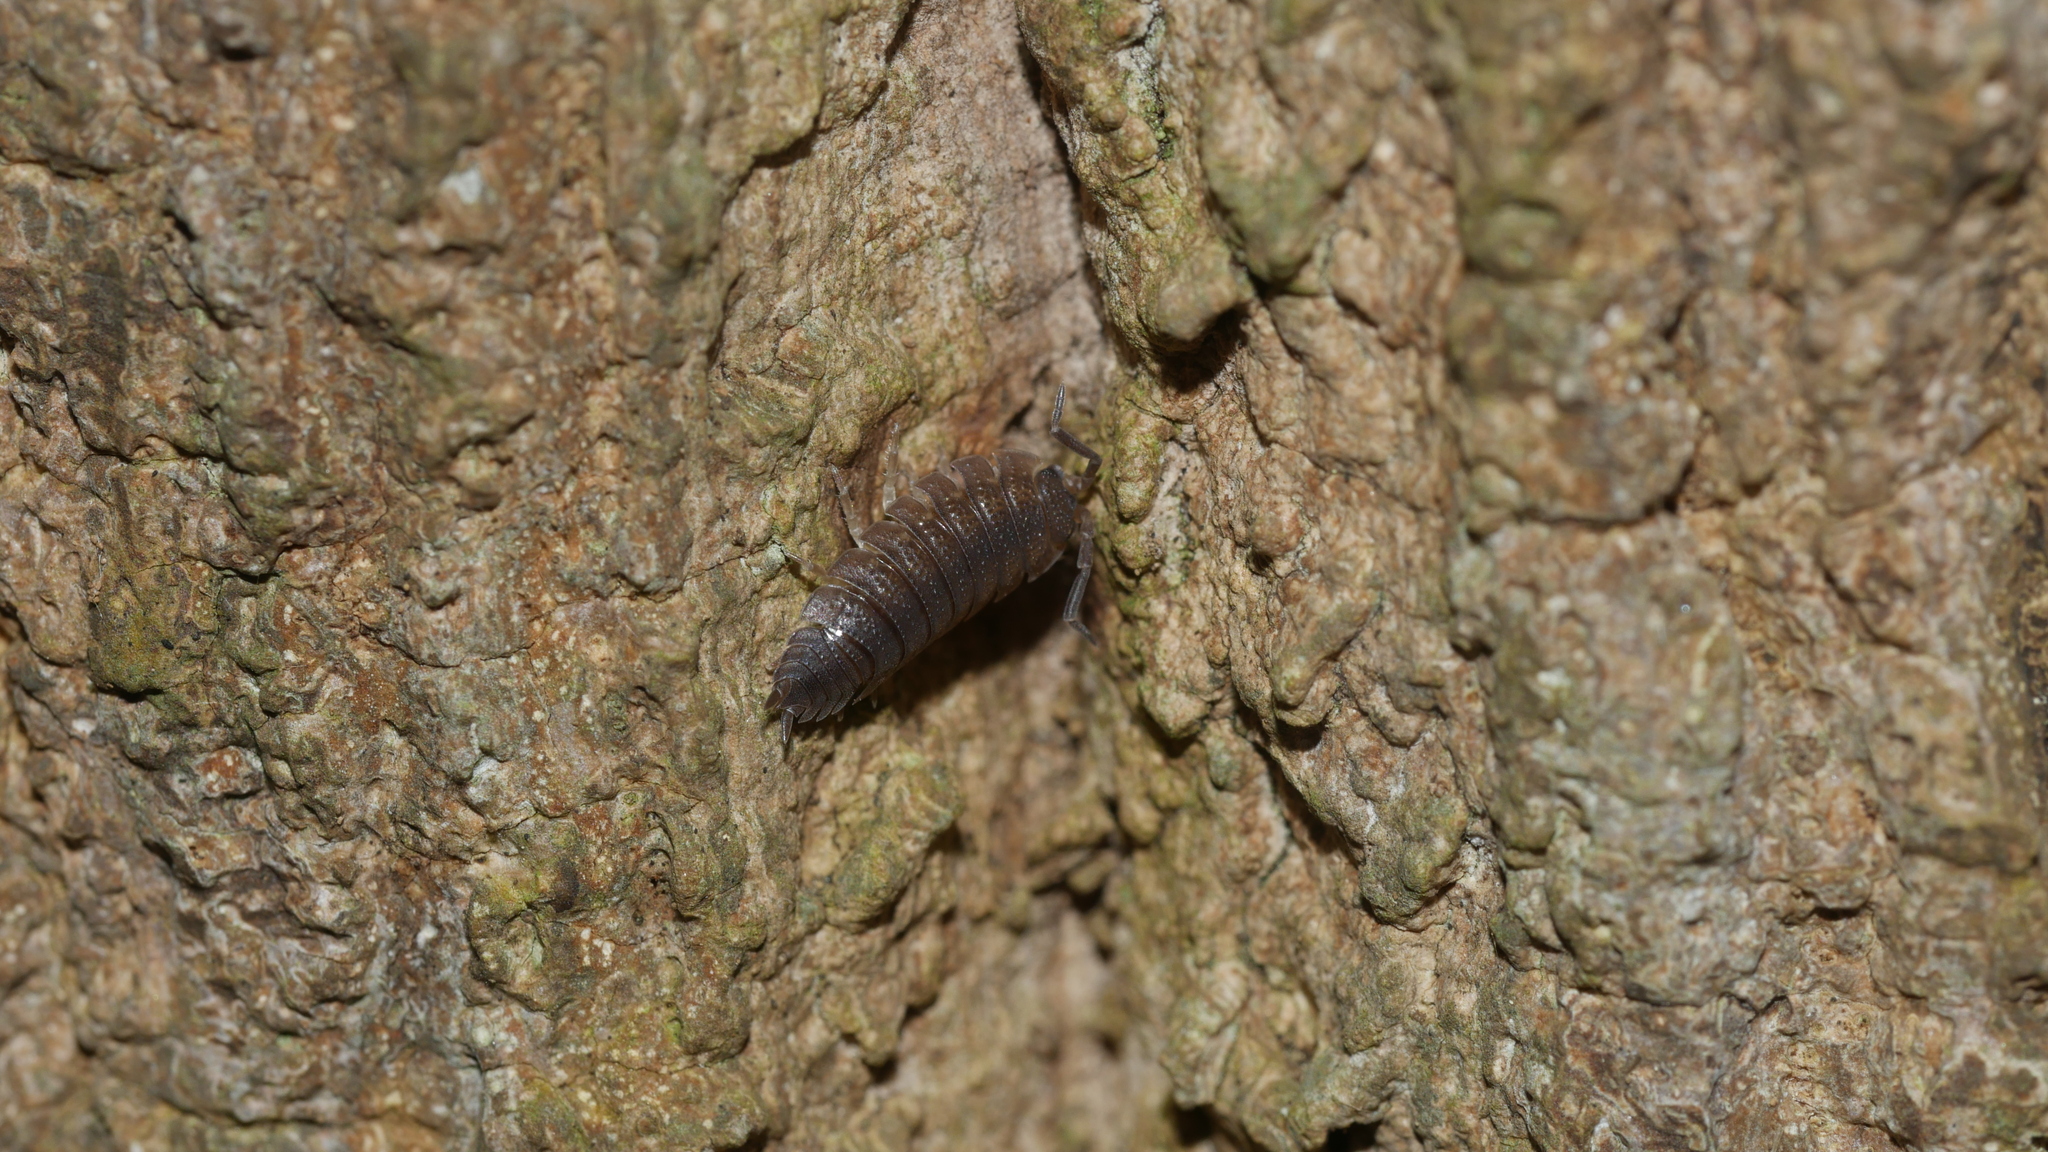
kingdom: Animalia
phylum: Arthropoda
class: Malacostraca
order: Isopoda
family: Porcellionidae
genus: Porcellio
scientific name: Porcellio scaber
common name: Common rough woodlouse
